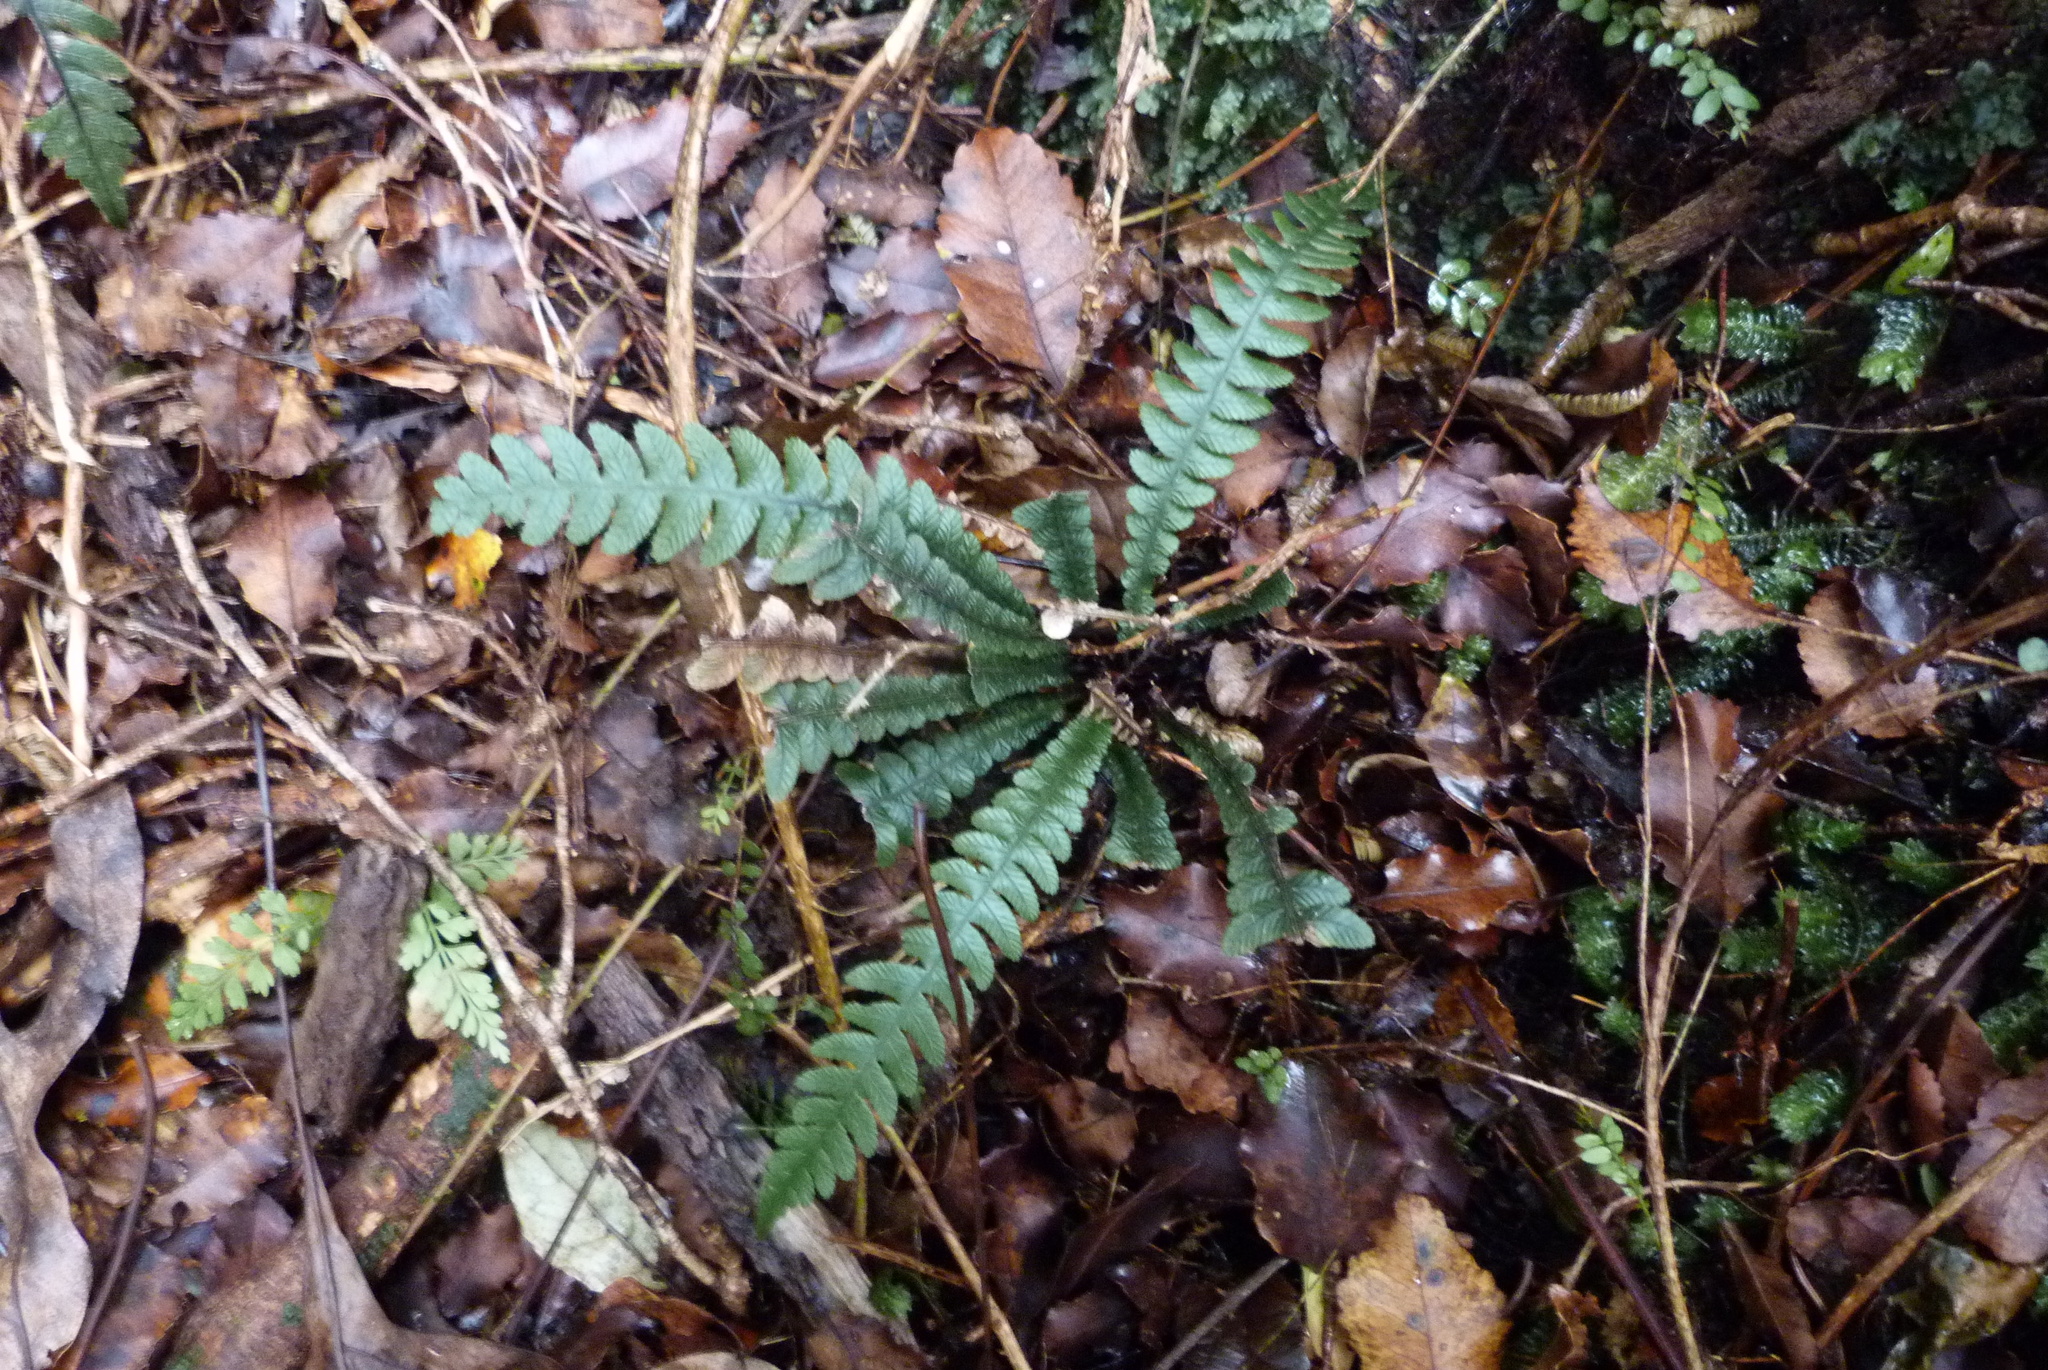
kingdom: Plantae
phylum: Tracheophyta
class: Polypodiopsida
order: Polypodiales
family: Blechnaceae
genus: Austroblechnum
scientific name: Austroblechnum lanceolatum
